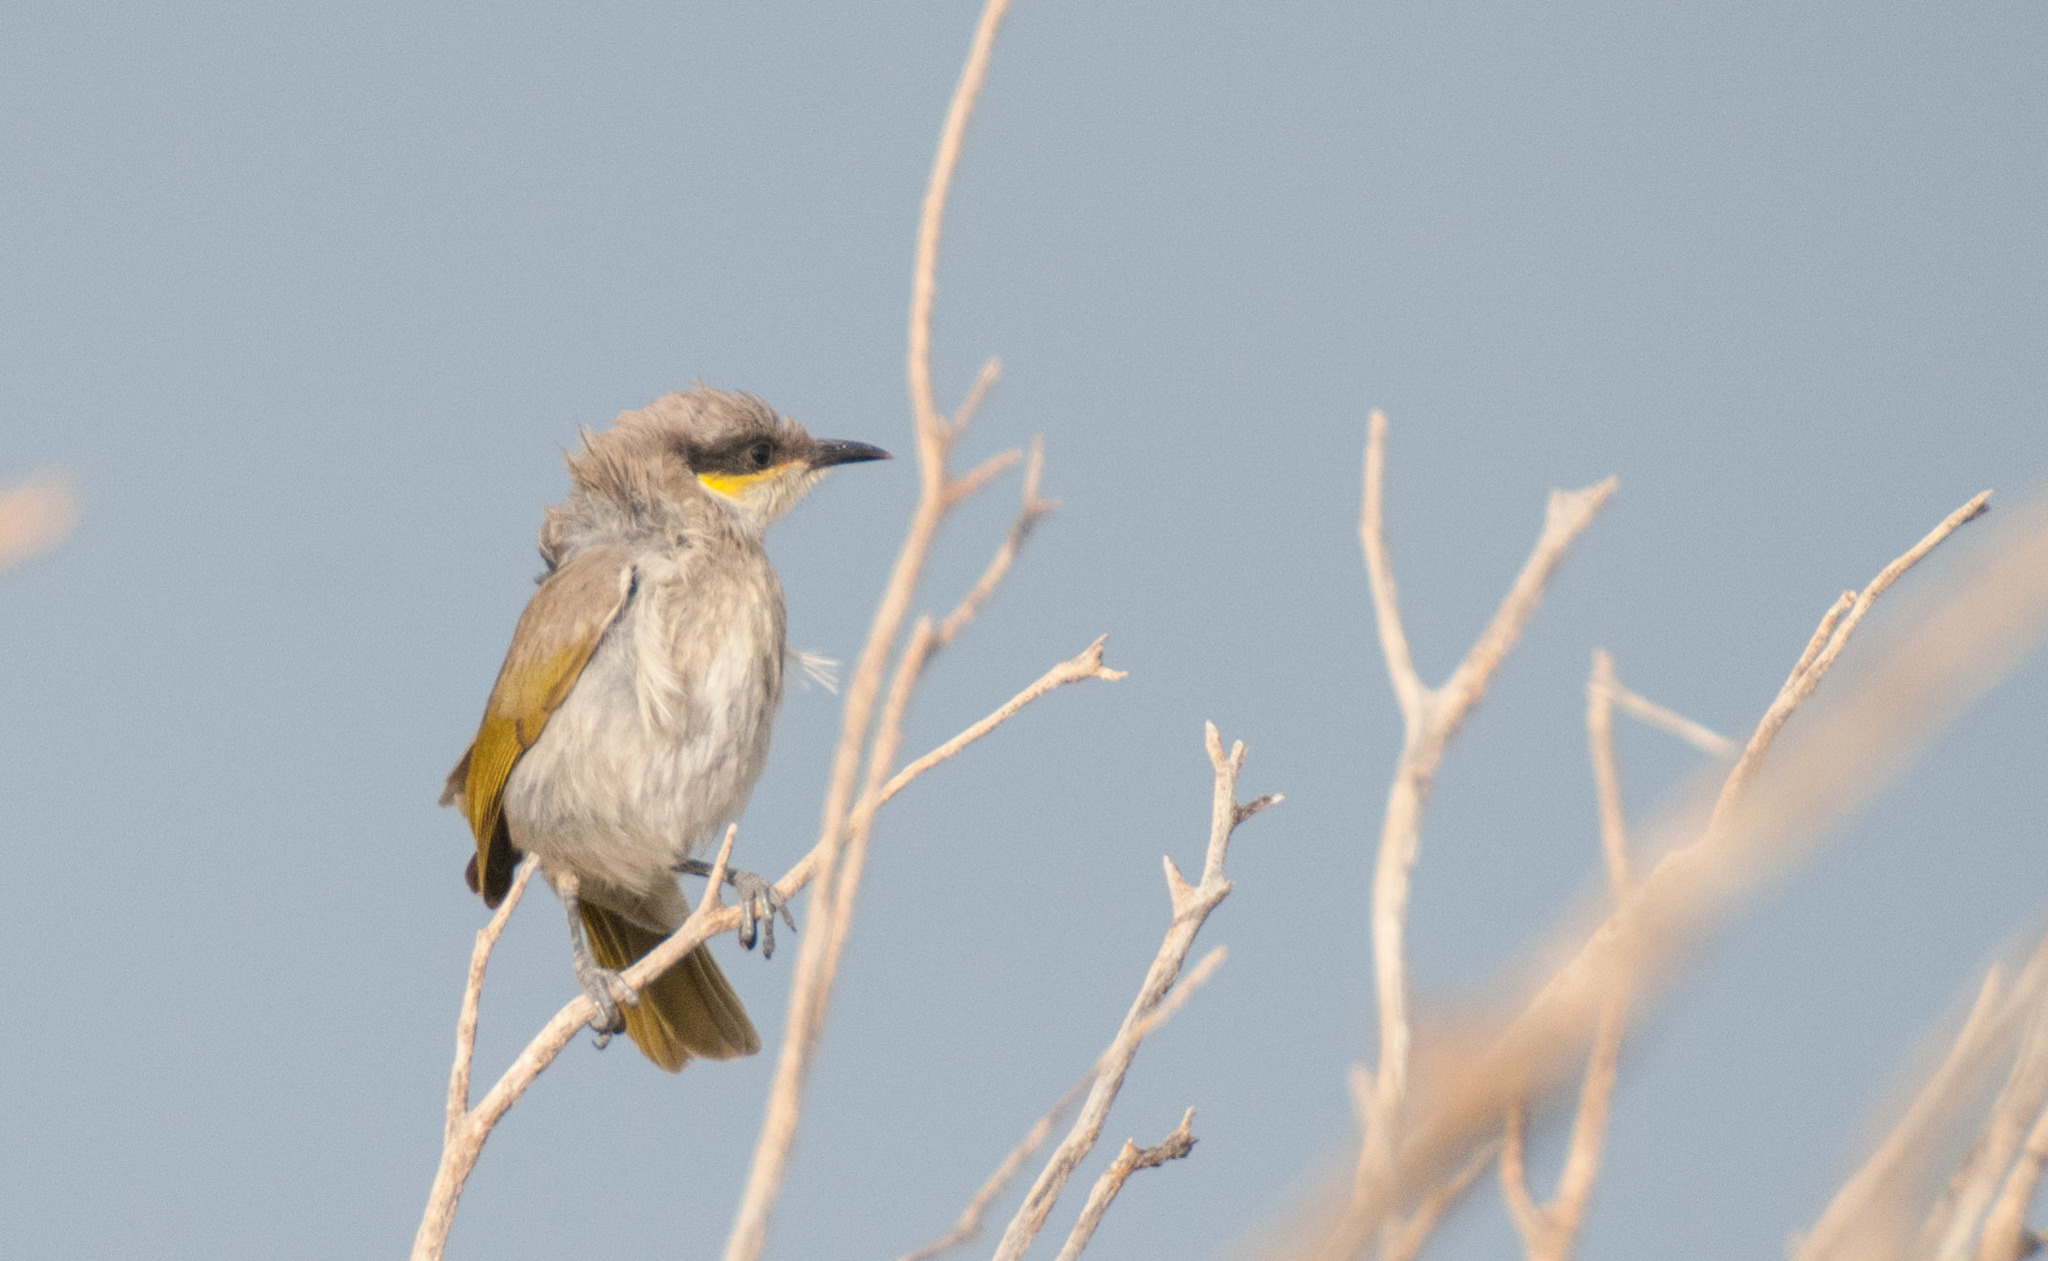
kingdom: Animalia
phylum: Chordata
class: Aves
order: Passeriformes
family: Meliphagidae
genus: Gavicalis
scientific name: Gavicalis virescens
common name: Singing honeyeater
